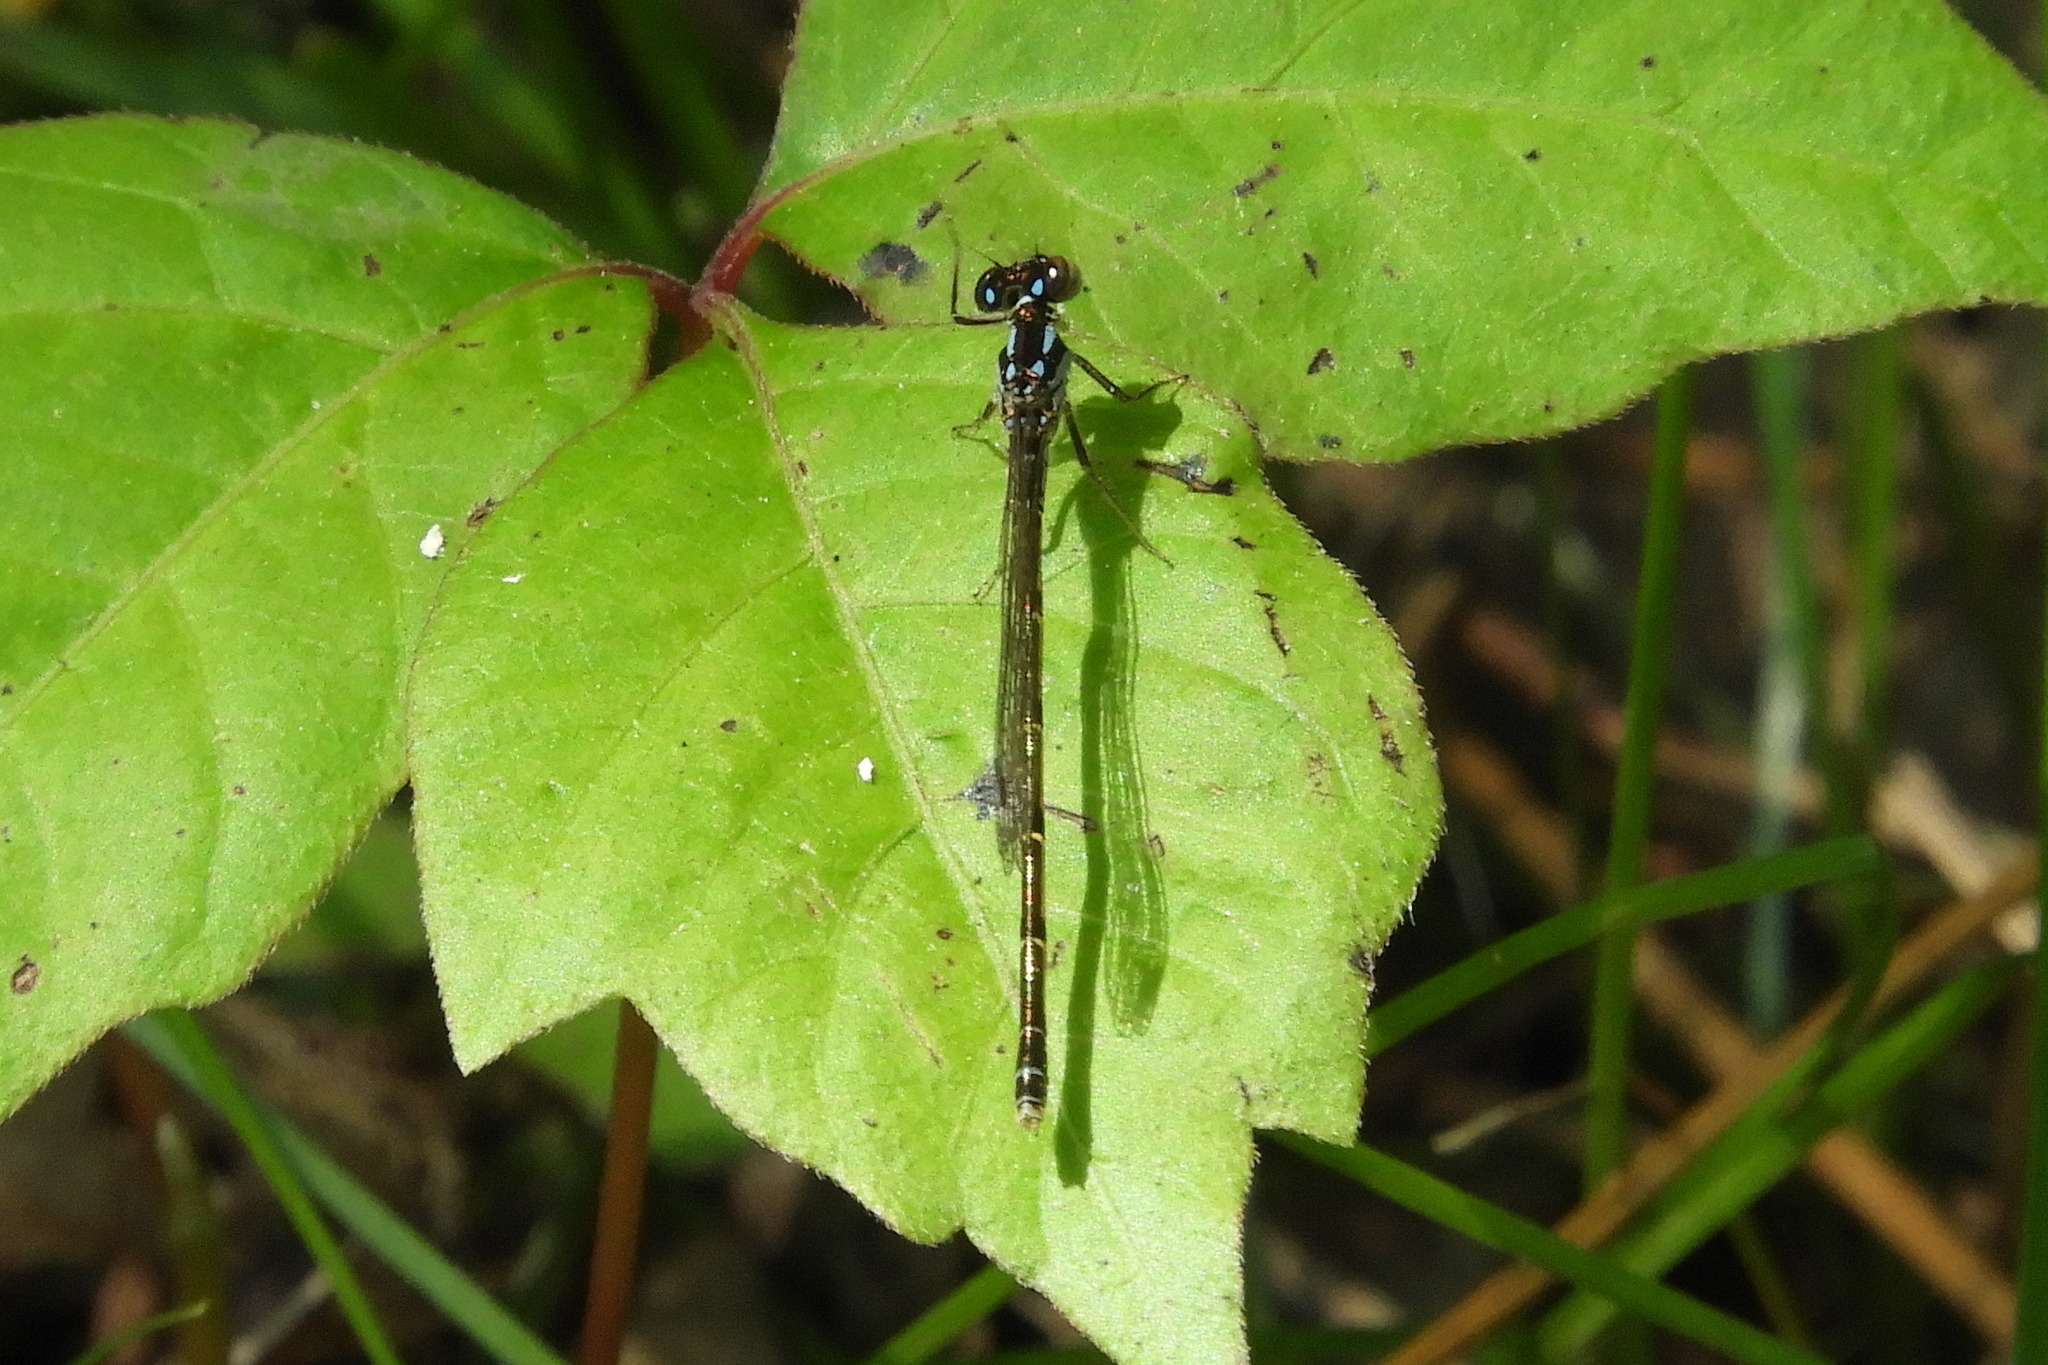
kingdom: Animalia
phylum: Arthropoda
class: Insecta
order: Odonata
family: Coenagrionidae
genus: Ischnura
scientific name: Ischnura posita
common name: Fragile forktail
